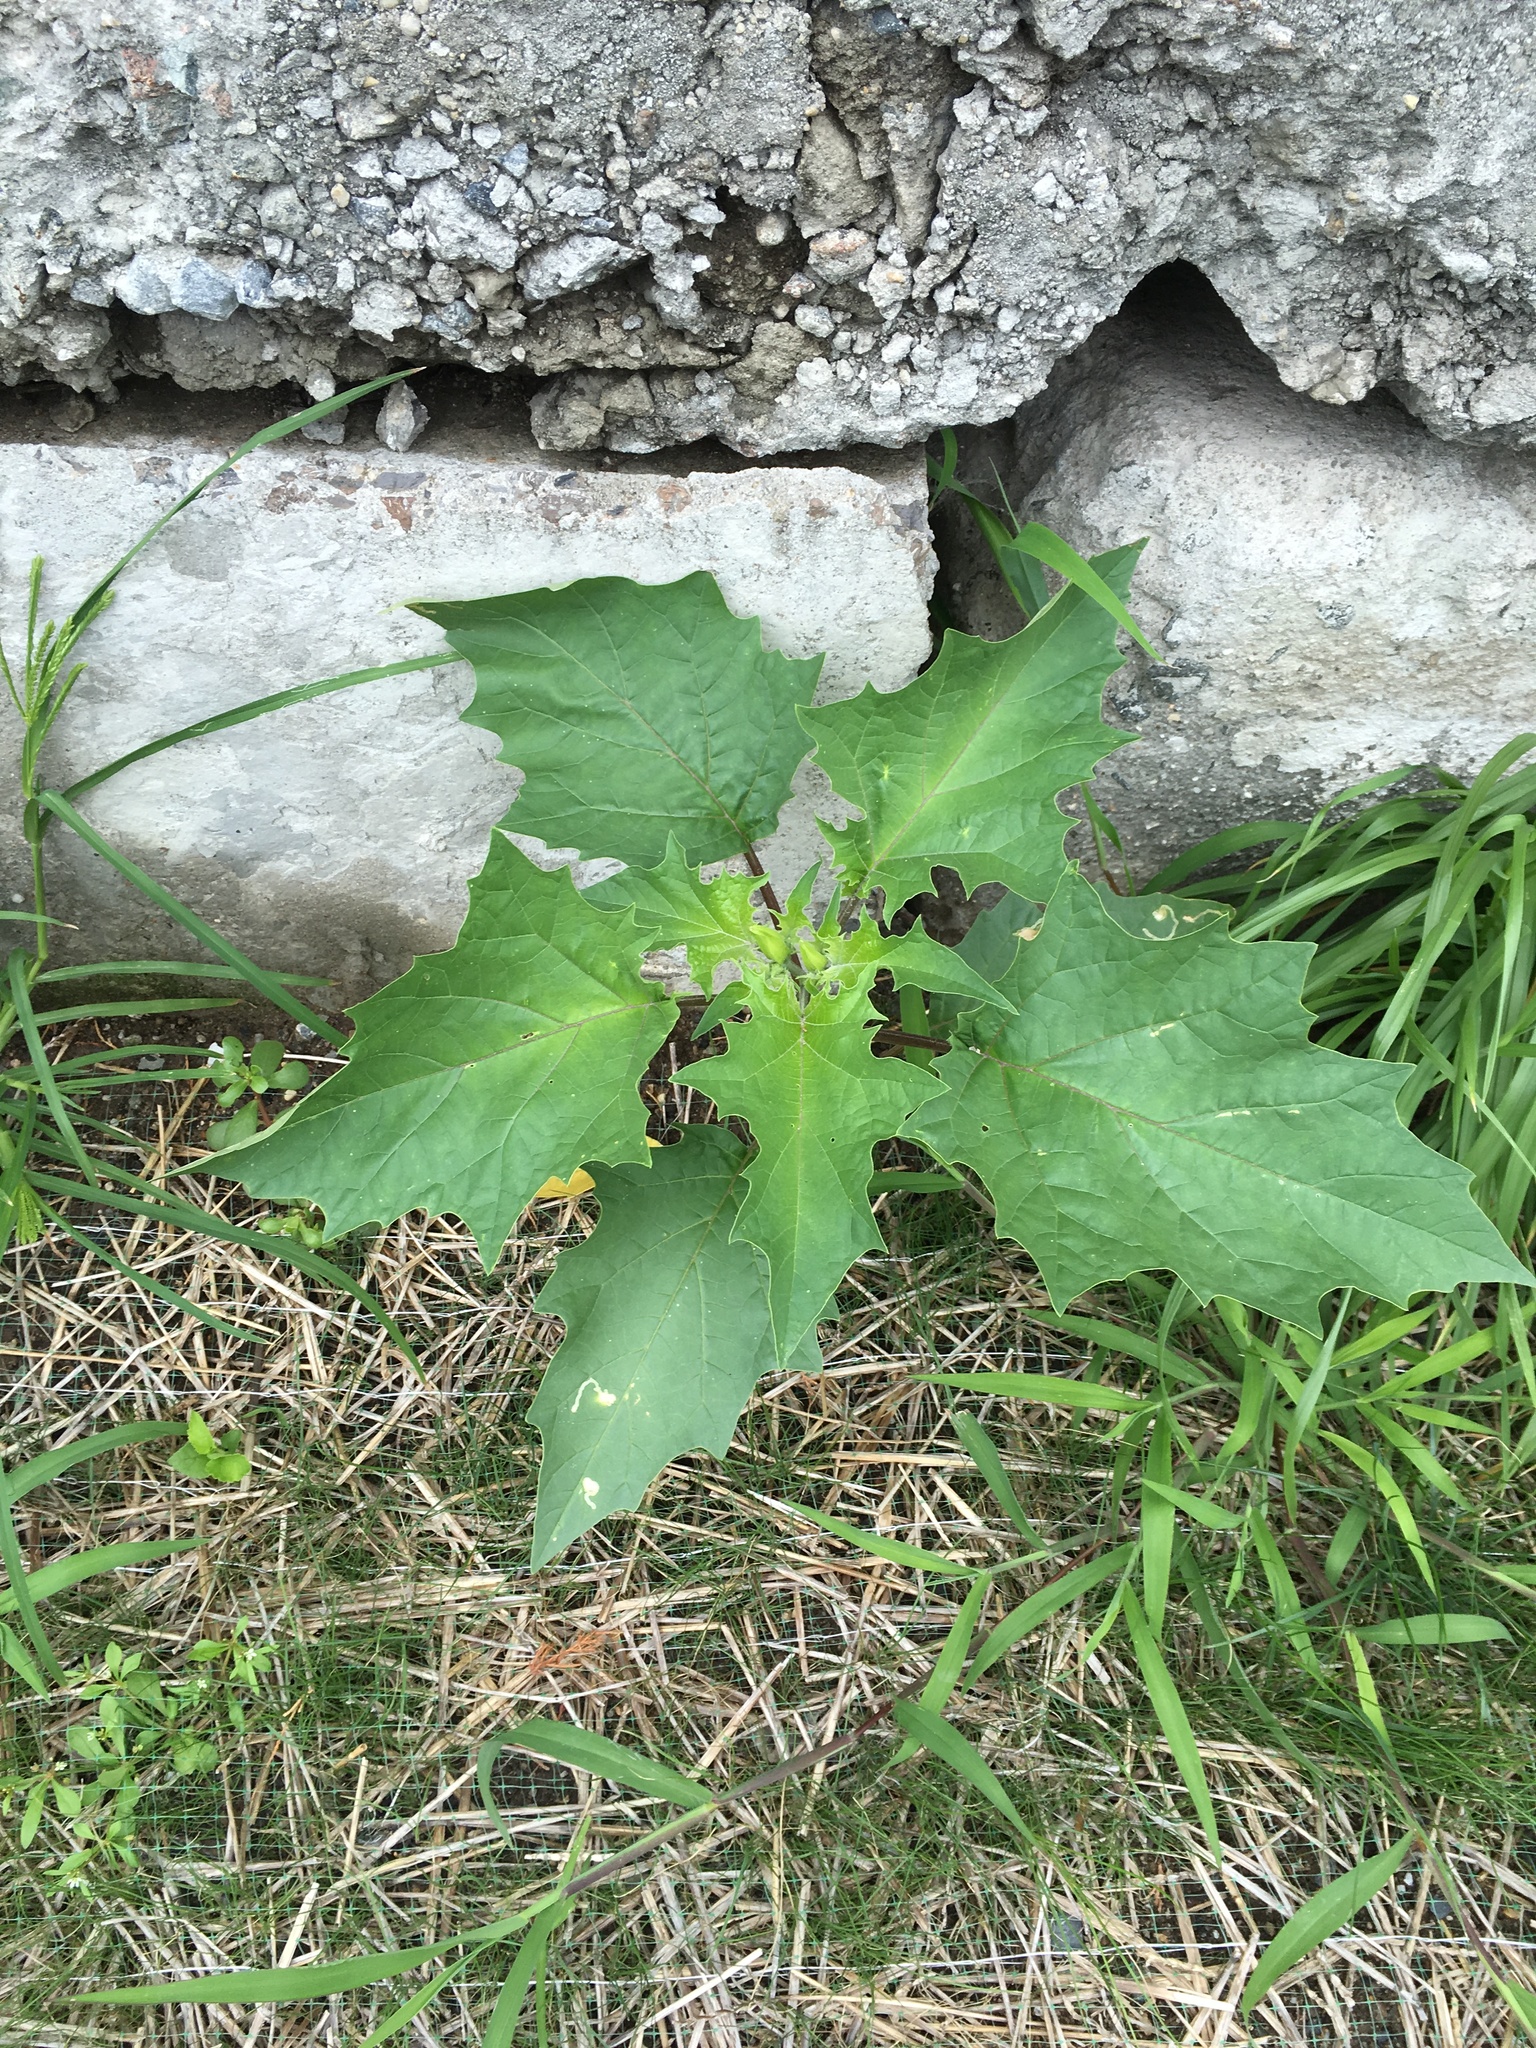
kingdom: Plantae
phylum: Tracheophyta
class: Magnoliopsida
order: Solanales
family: Solanaceae
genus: Datura
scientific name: Datura stramonium
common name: Thorn-apple
